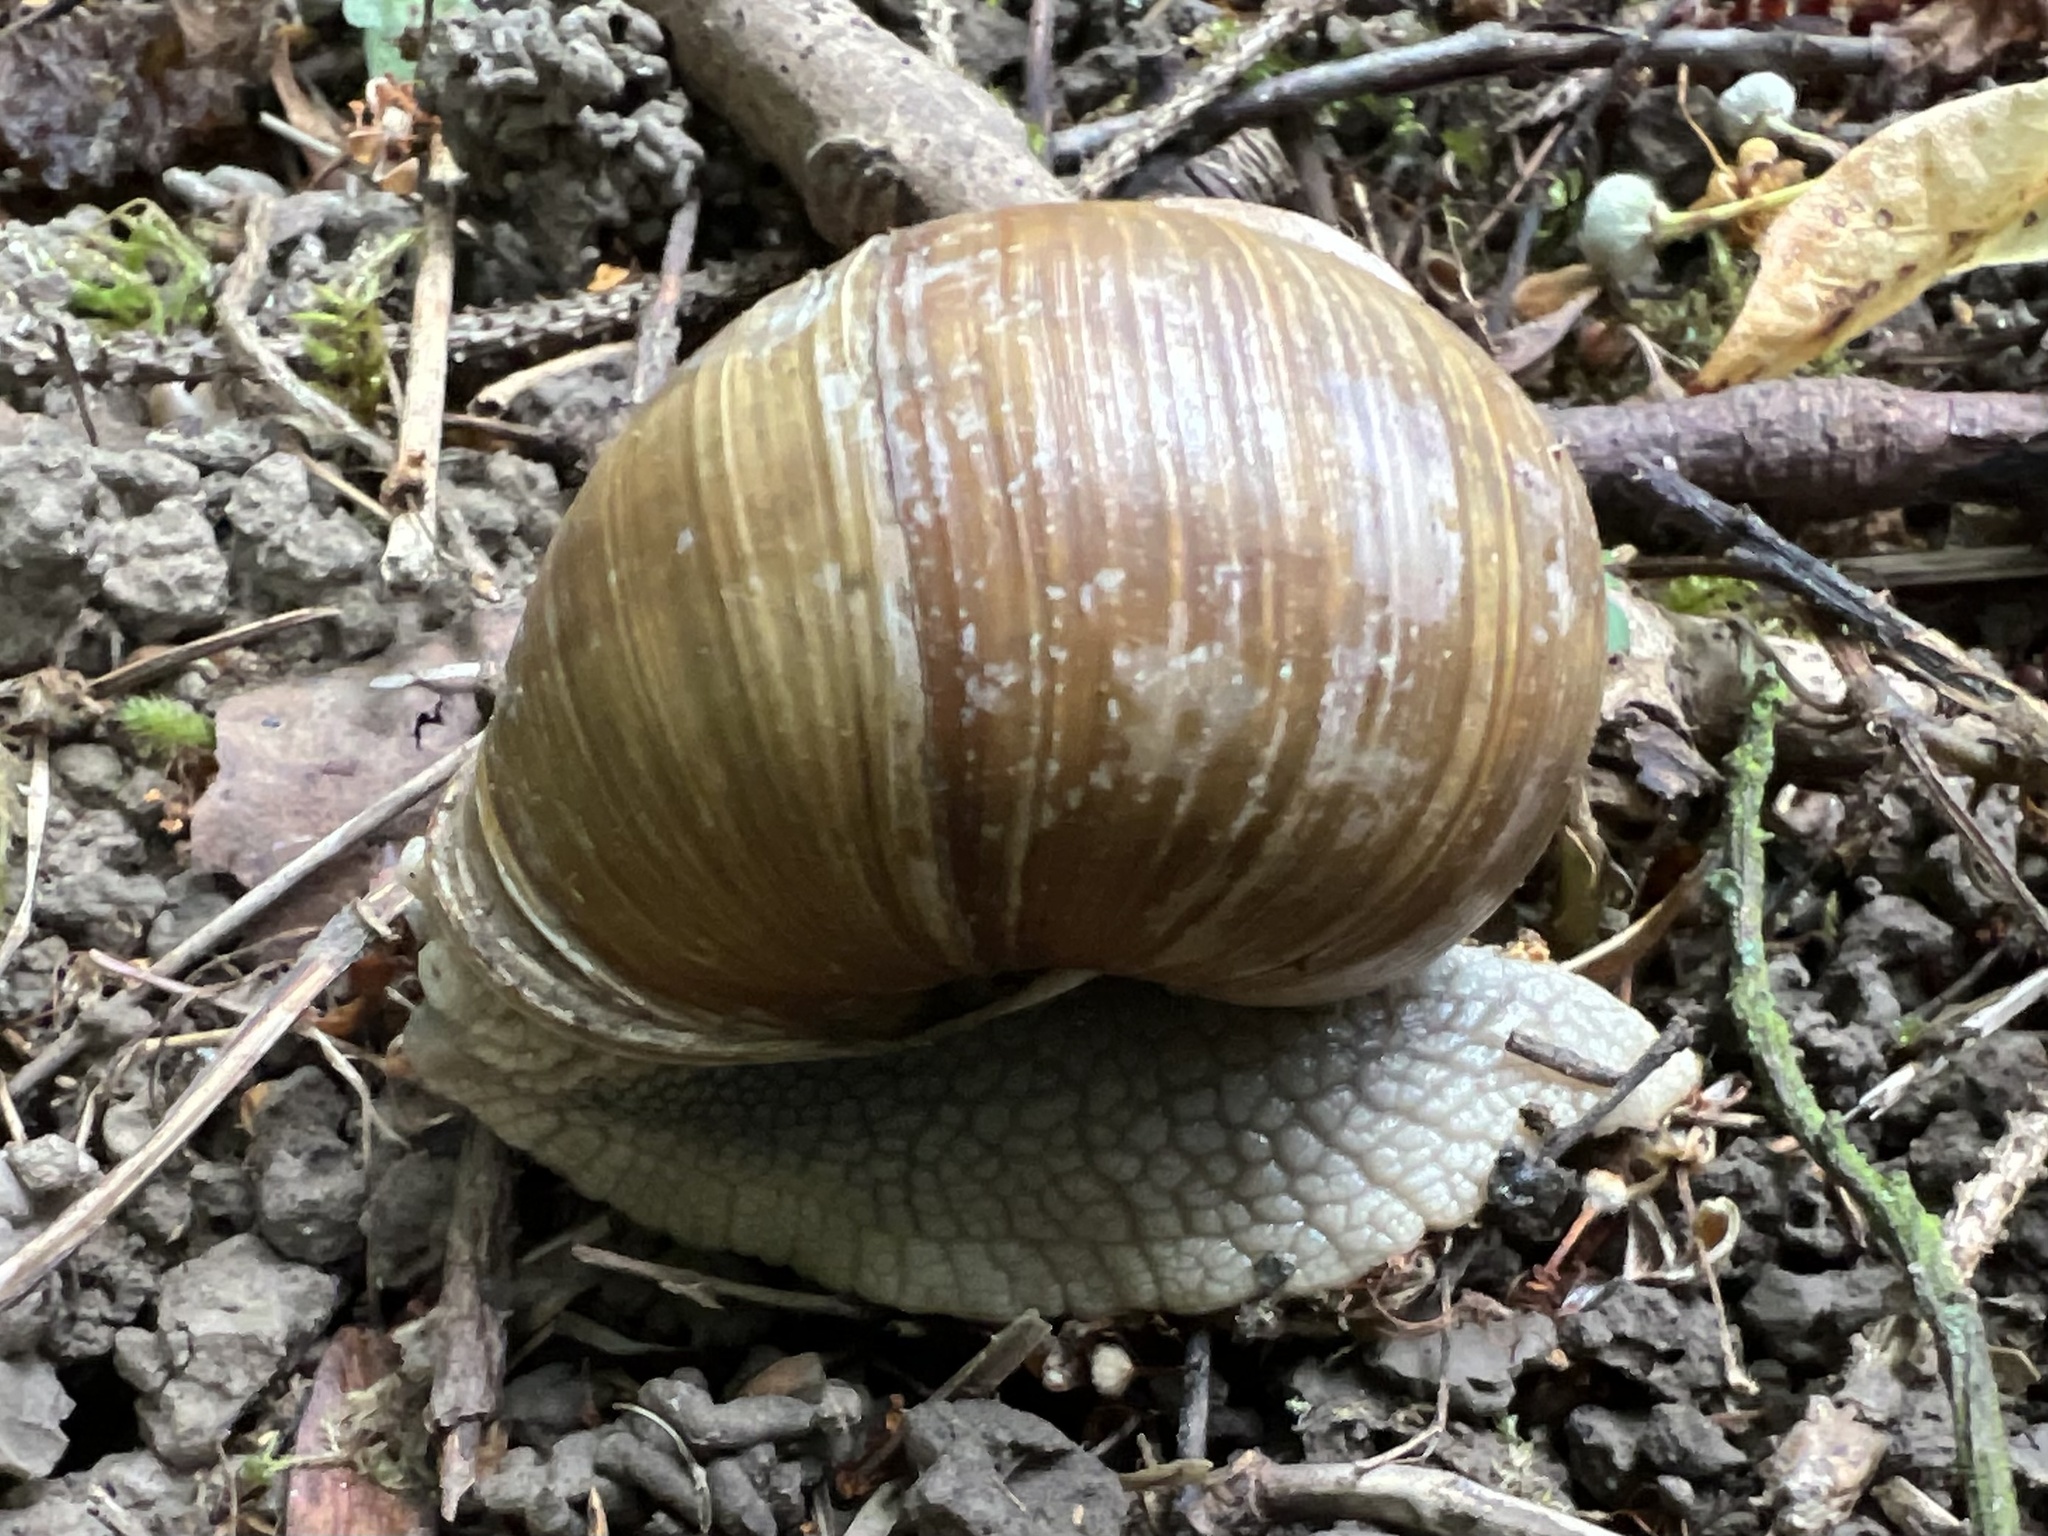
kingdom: Animalia
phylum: Mollusca
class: Gastropoda
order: Stylommatophora
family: Helicidae
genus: Helix
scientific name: Helix pomatia
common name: Roman snail
